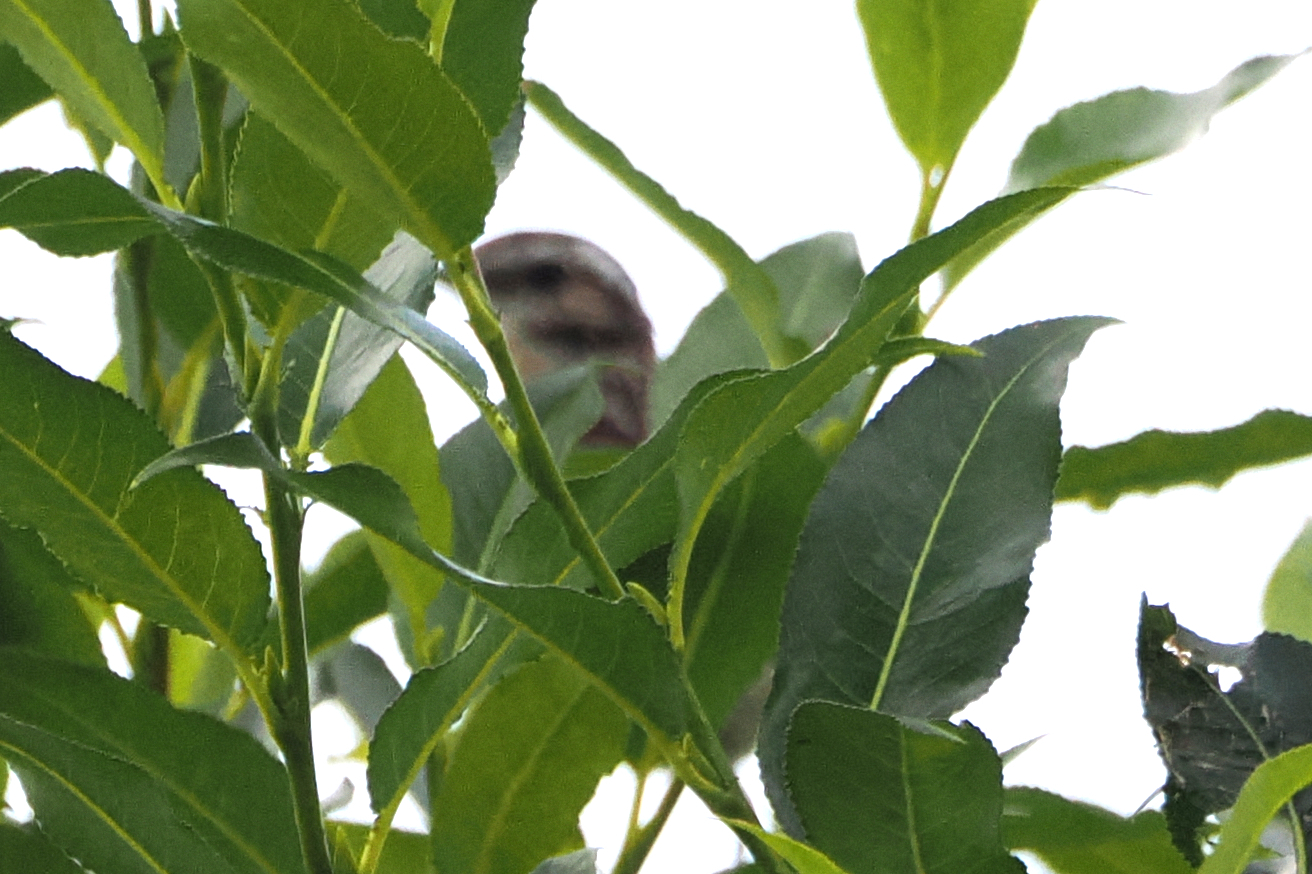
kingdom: Animalia
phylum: Chordata
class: Aves
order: Passeriformes
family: Muscicapidae
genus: Saxicola
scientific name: Saxicola rubetra
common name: Whinchat
